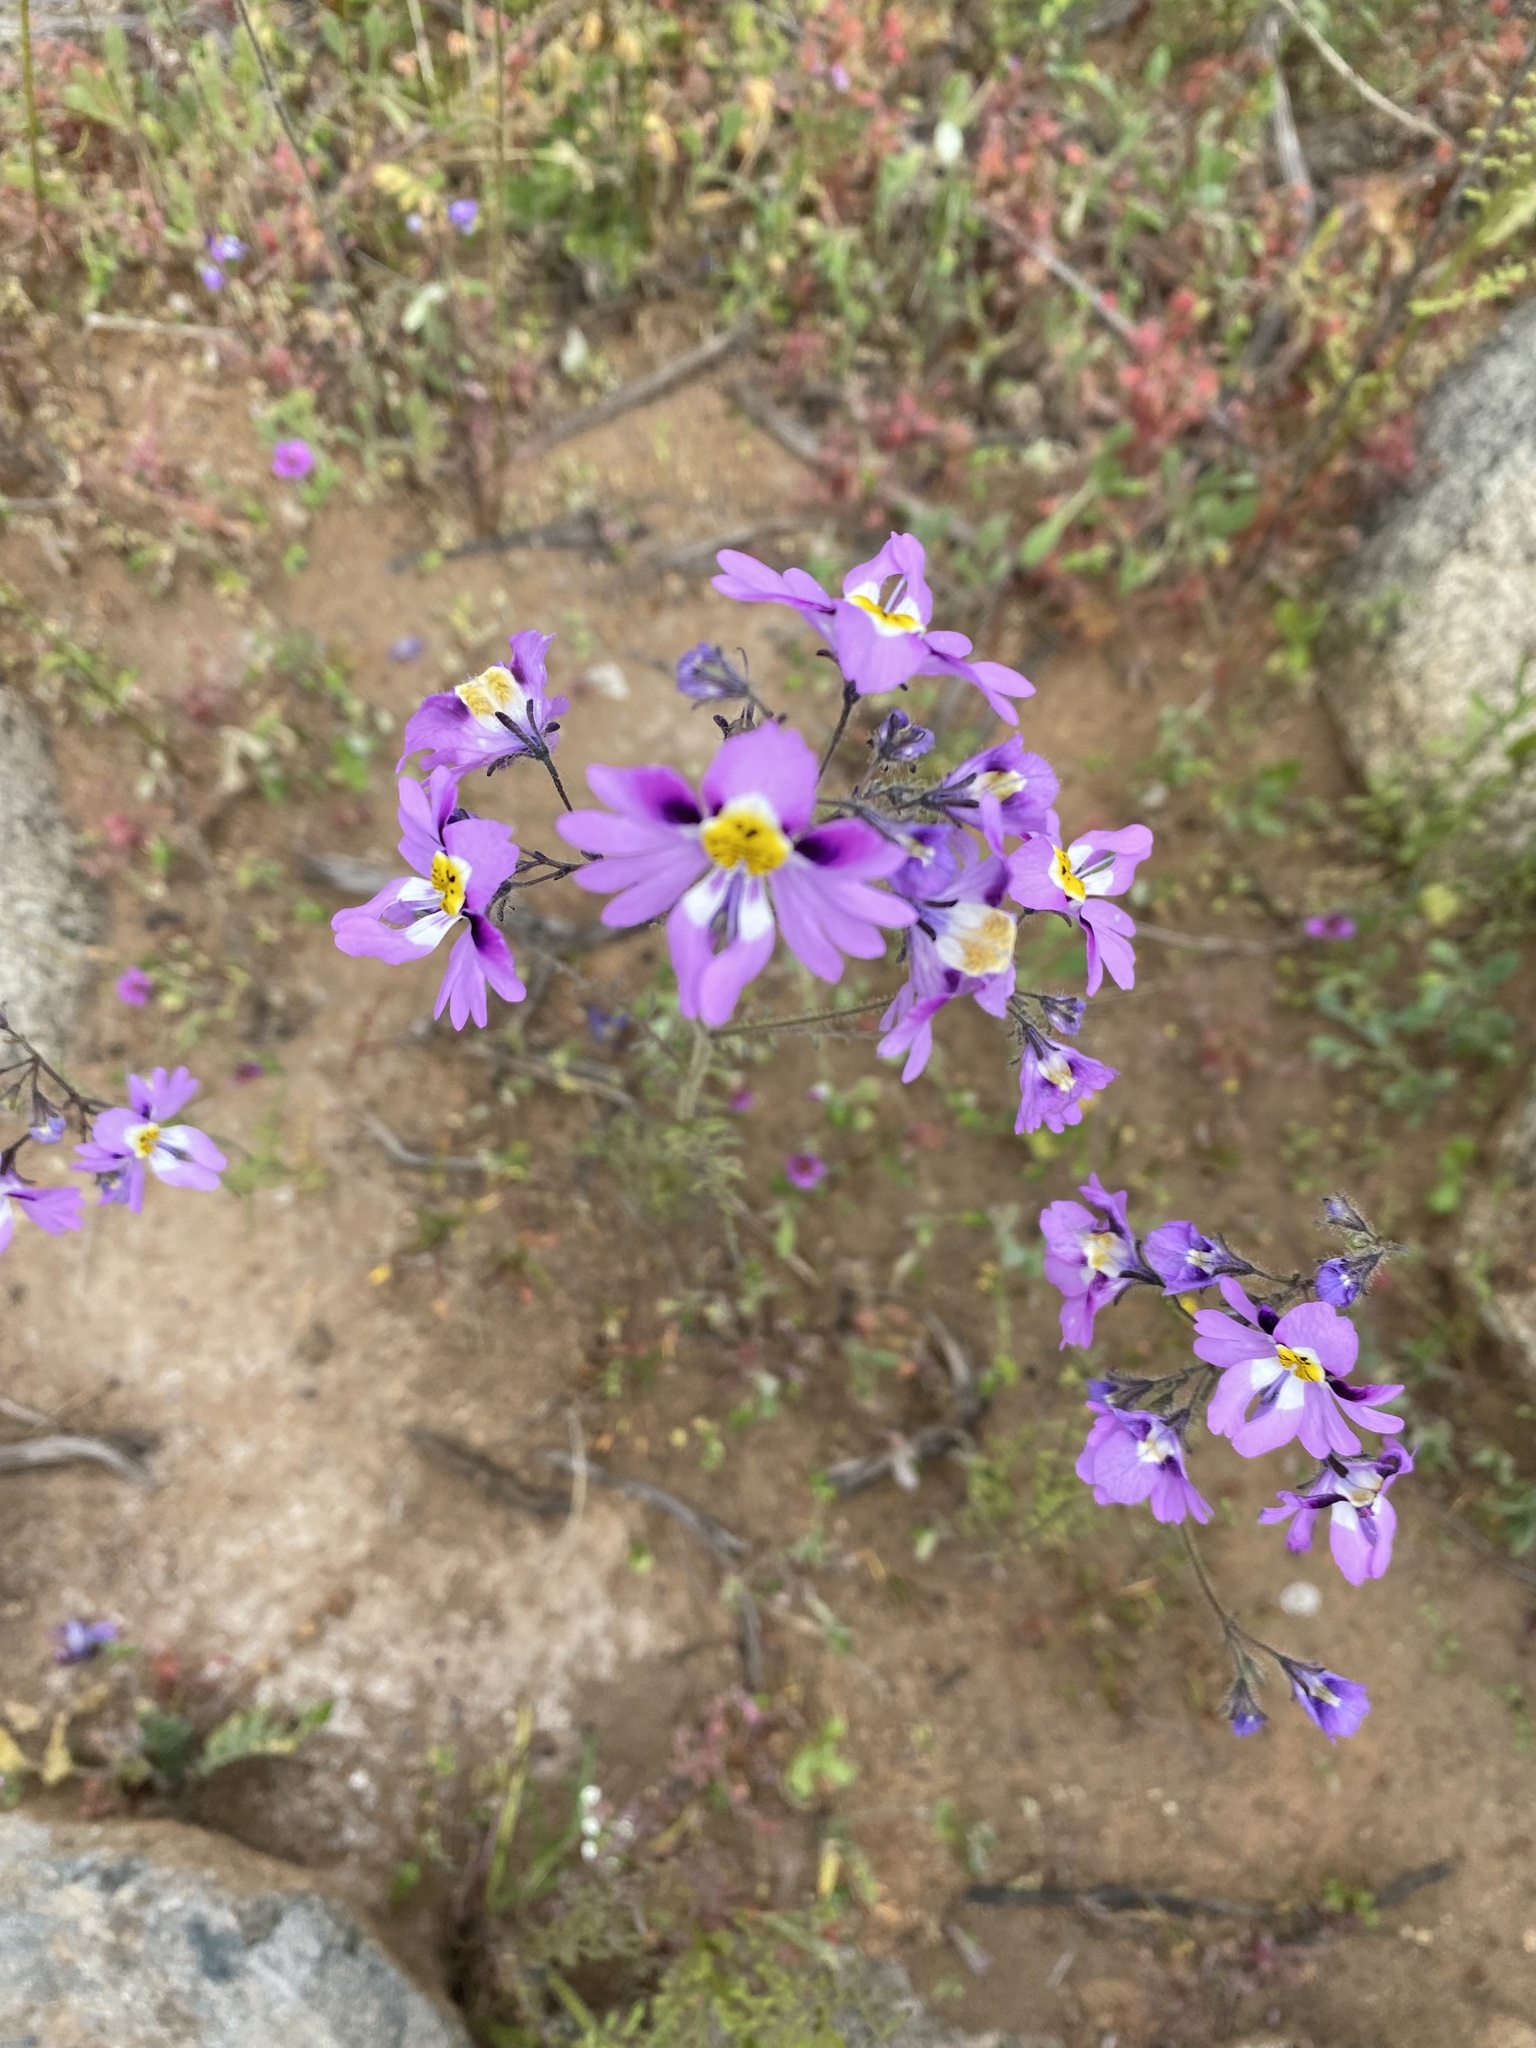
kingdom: Plantae
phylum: Tracheophyta
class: Magnoliopsida
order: Solanales
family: Solanaceae
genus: Schizanthus
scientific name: Schizanthus carlomunozii
